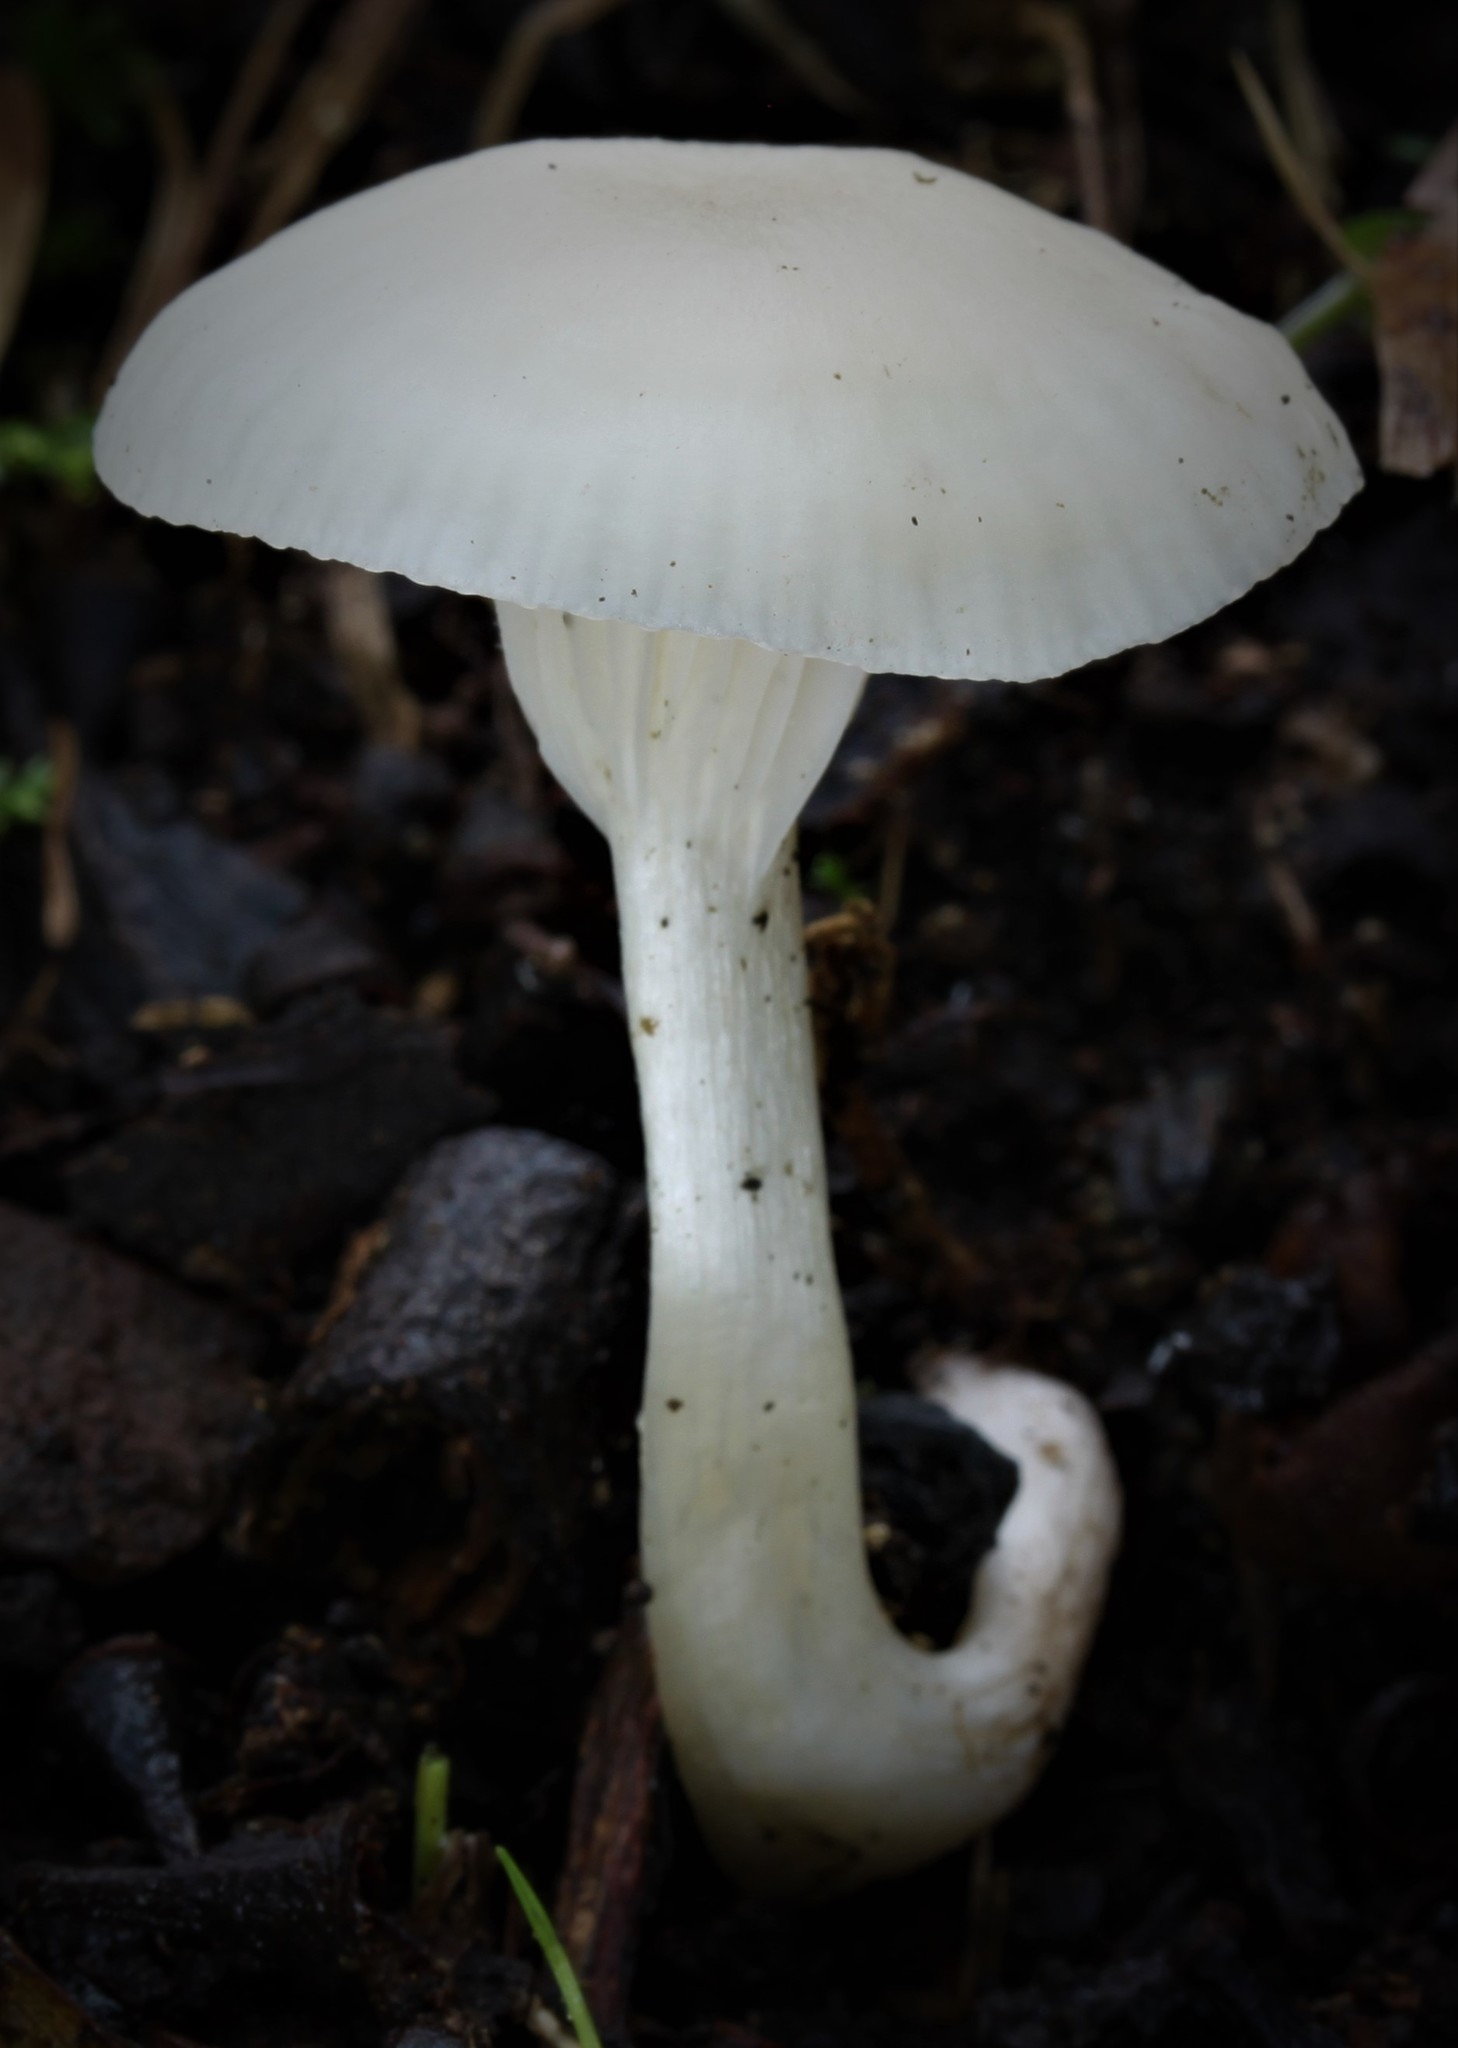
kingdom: Fungi
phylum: Basidiomycota
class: Agaricomycetes
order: Agaricales
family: Hygrophoraceae
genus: Cuphophyllus
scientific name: Cuphophyllus virgineus
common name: Snowy waxcap
